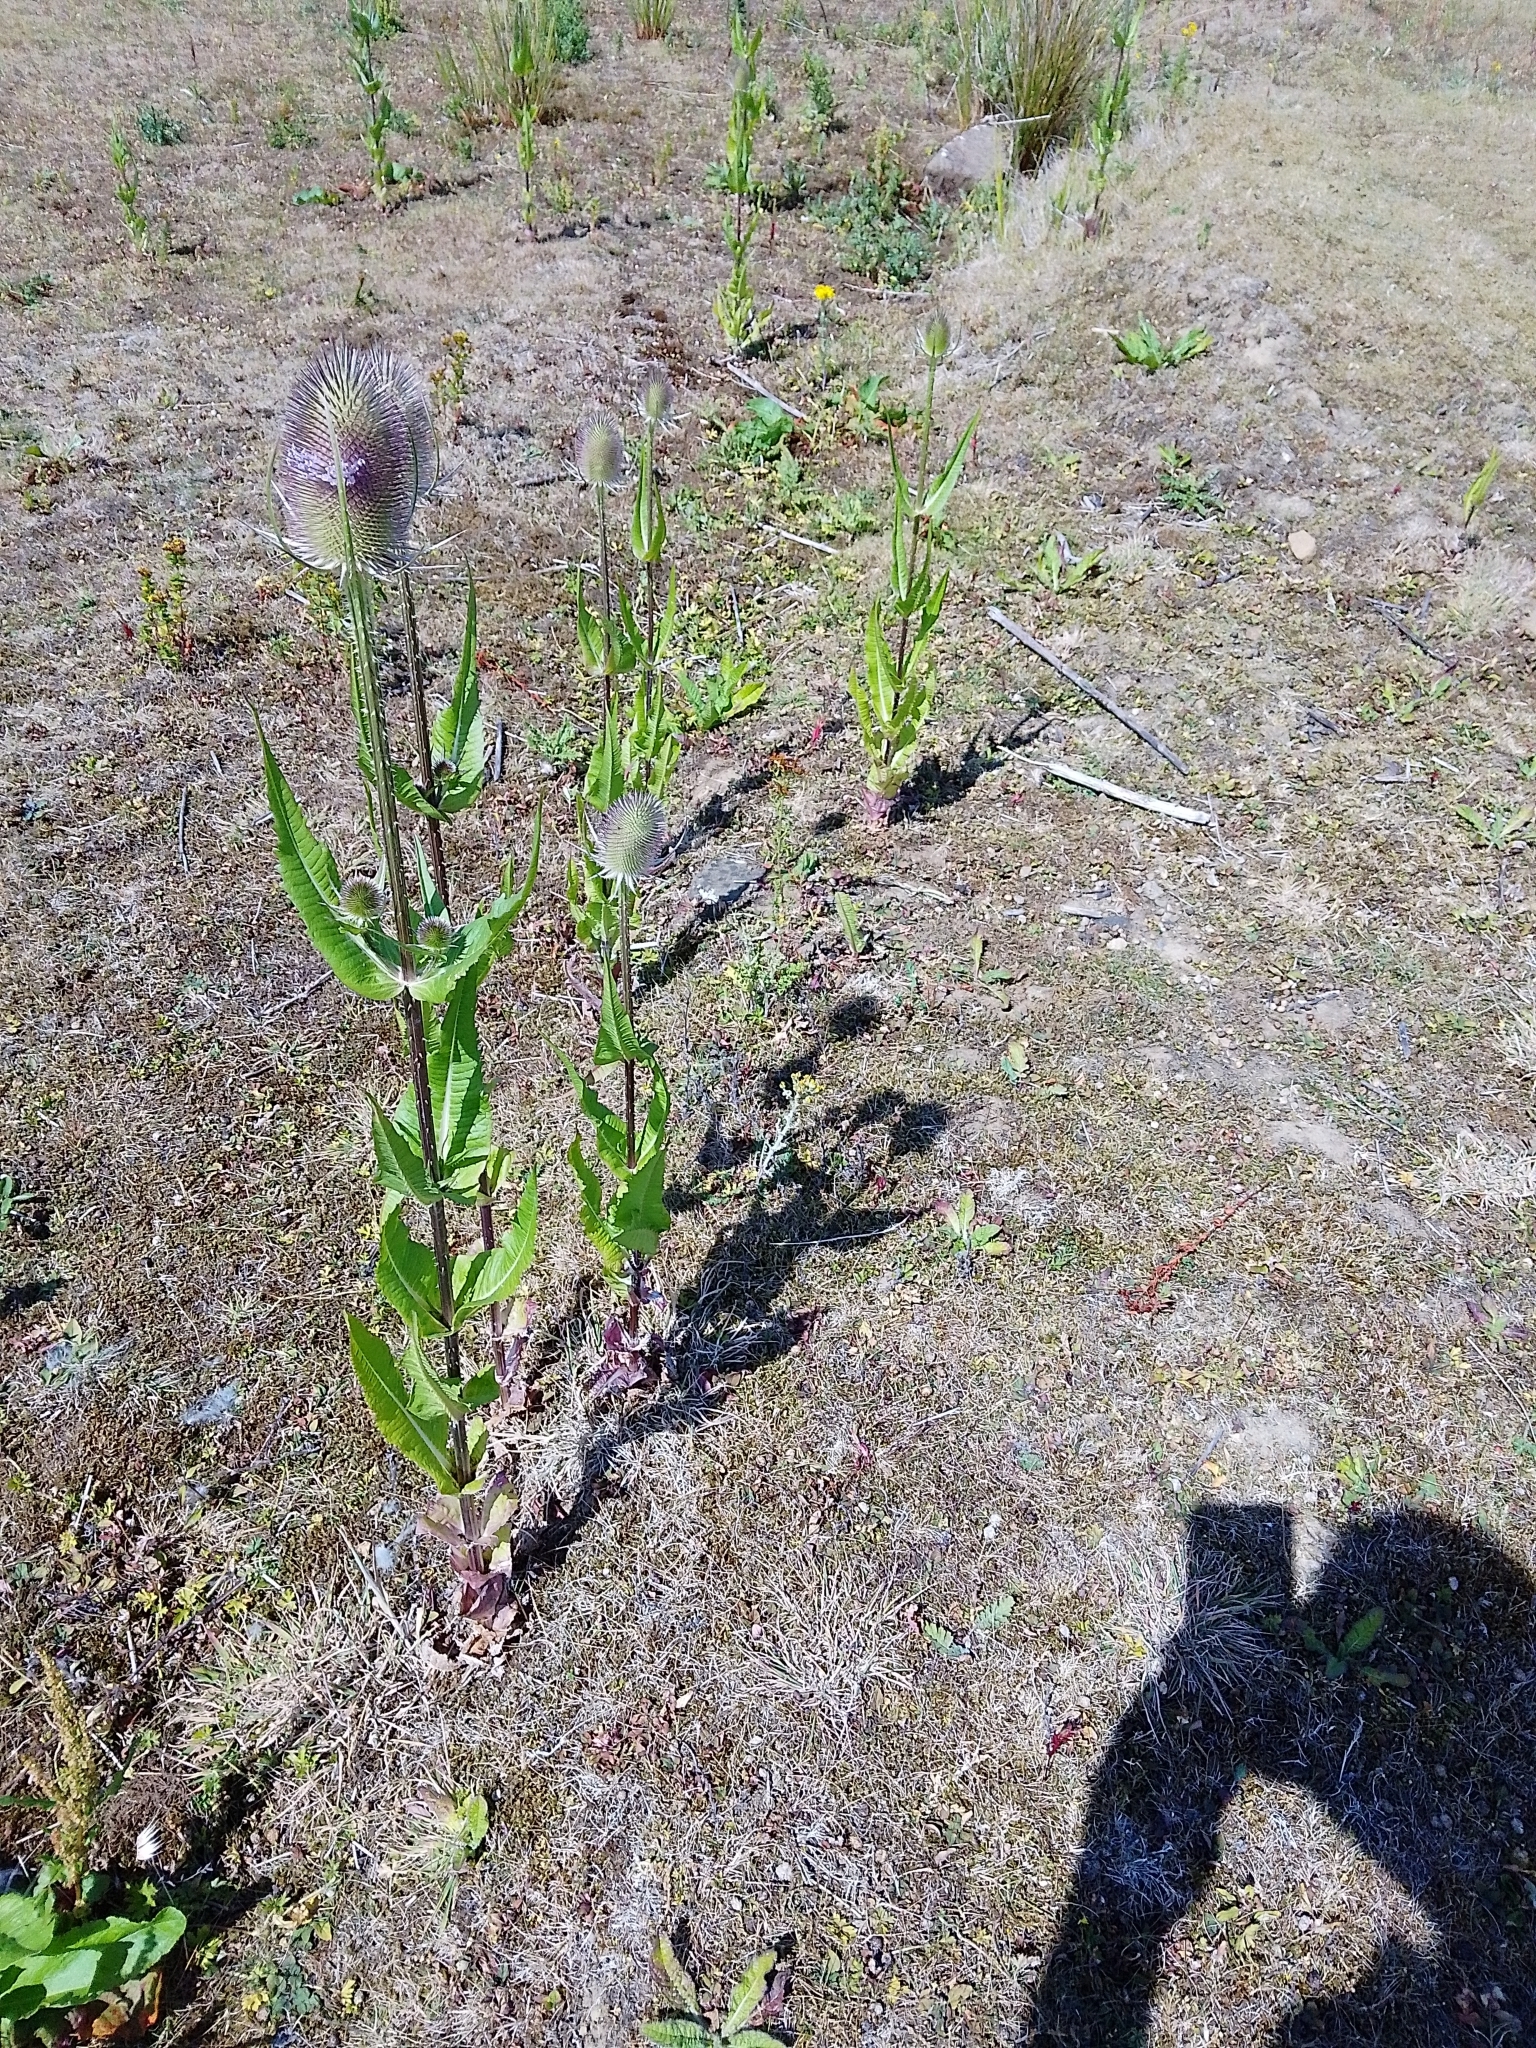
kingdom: Plantae
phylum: Tracheophyta
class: Magnoliopsida
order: Dipsacales
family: Caprifoliaceae
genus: Dipsacus
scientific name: Dipsacus fullonum
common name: Teasel
